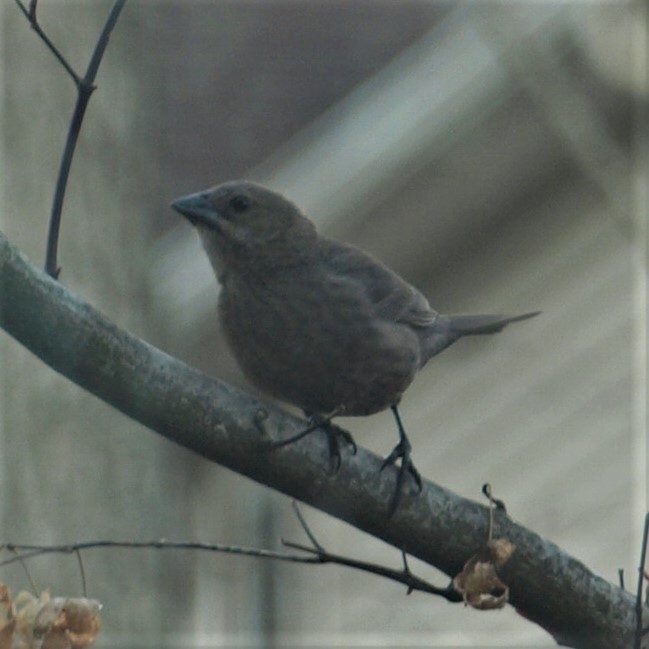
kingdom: Animalia
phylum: Chordata
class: Aves
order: Passeriformes
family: Icteridae
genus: Molothrus
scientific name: Molothrus ater
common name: Brown-headed cowbird
